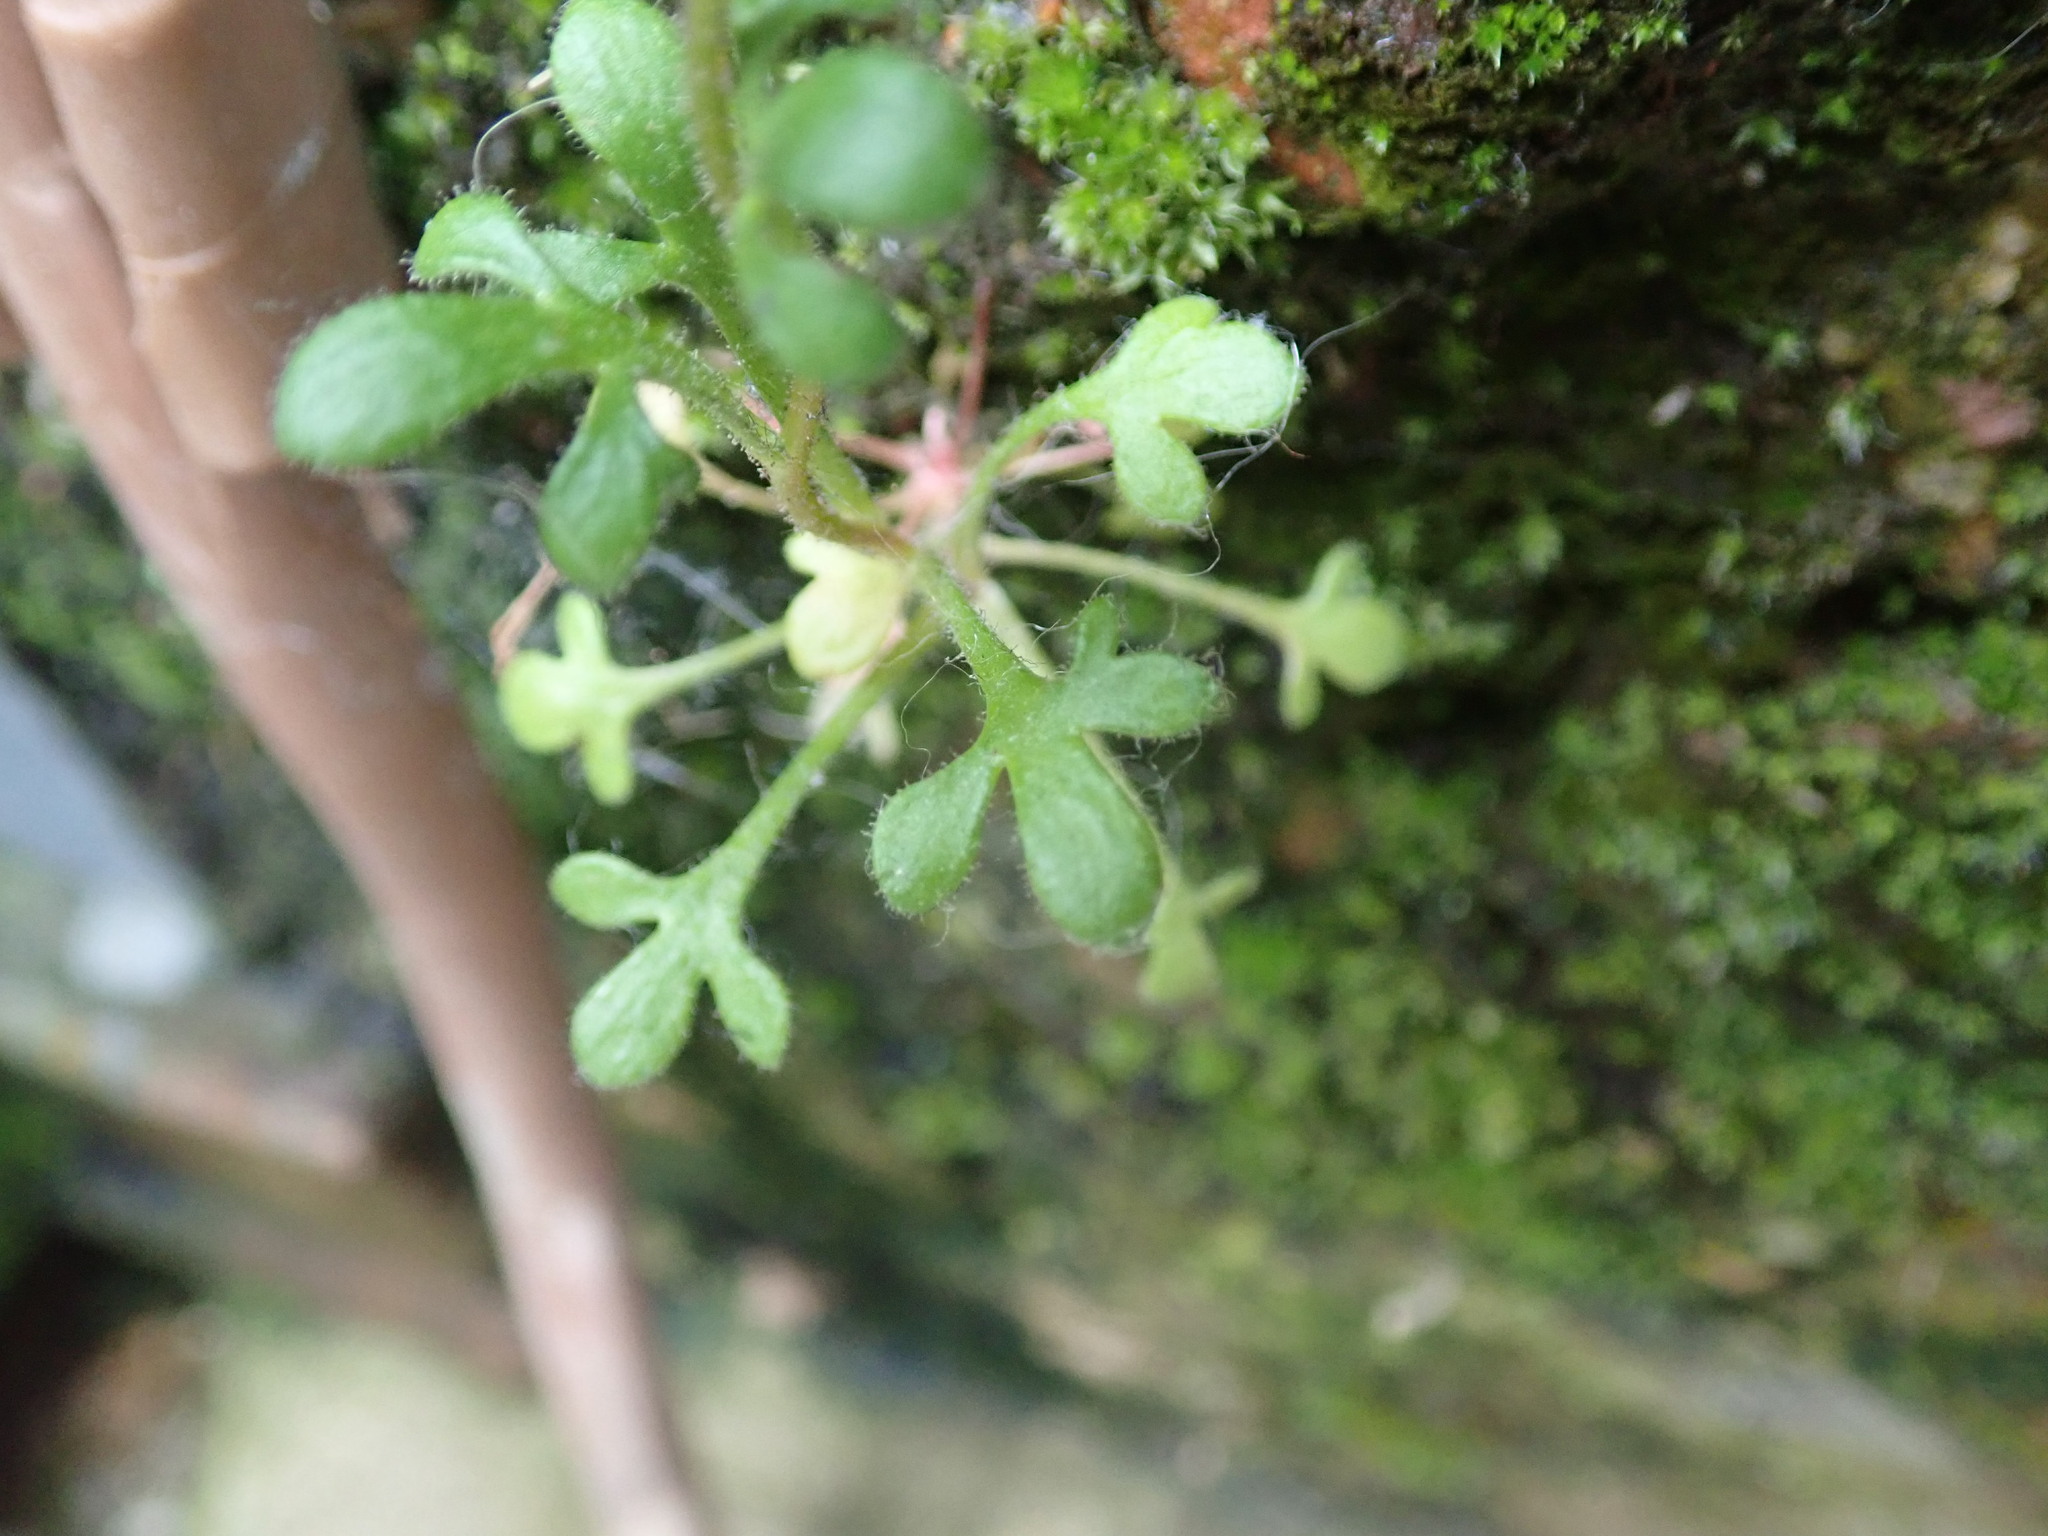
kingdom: Plantae
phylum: Tracheophyta
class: Magnoliopsida
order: Saxifragales
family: Saxifragaceae
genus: Saxifraga
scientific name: Saxifraga tridactylites
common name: Rue-leaved saxifrage
